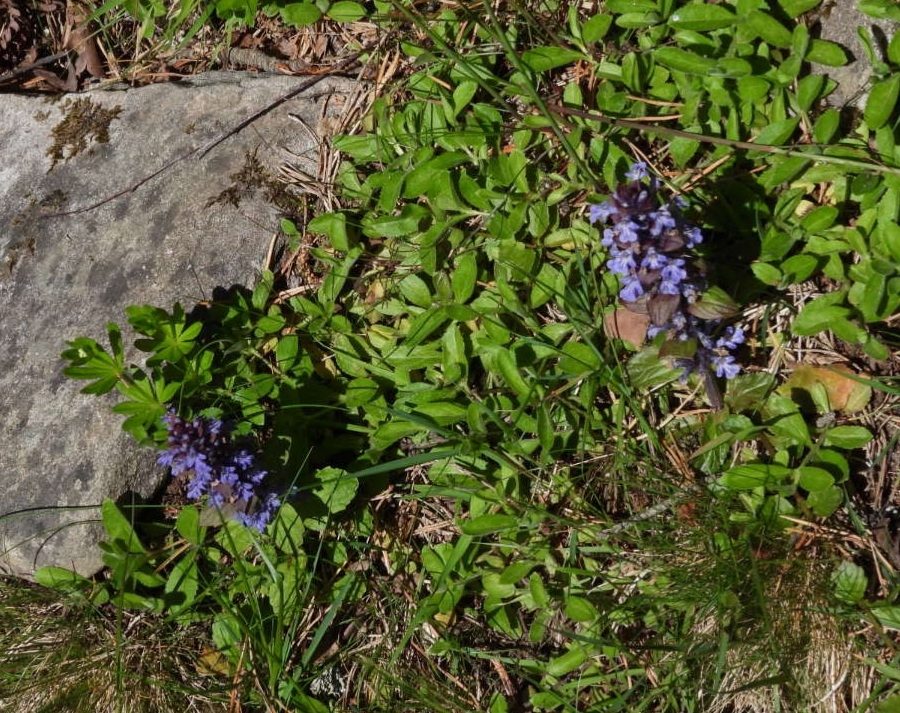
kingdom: Plantae
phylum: Tracheophyta
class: Magnoliopsida
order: Lamiales
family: Lamiaceae
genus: Ajuga
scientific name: Ajuga reptans
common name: Bugle
